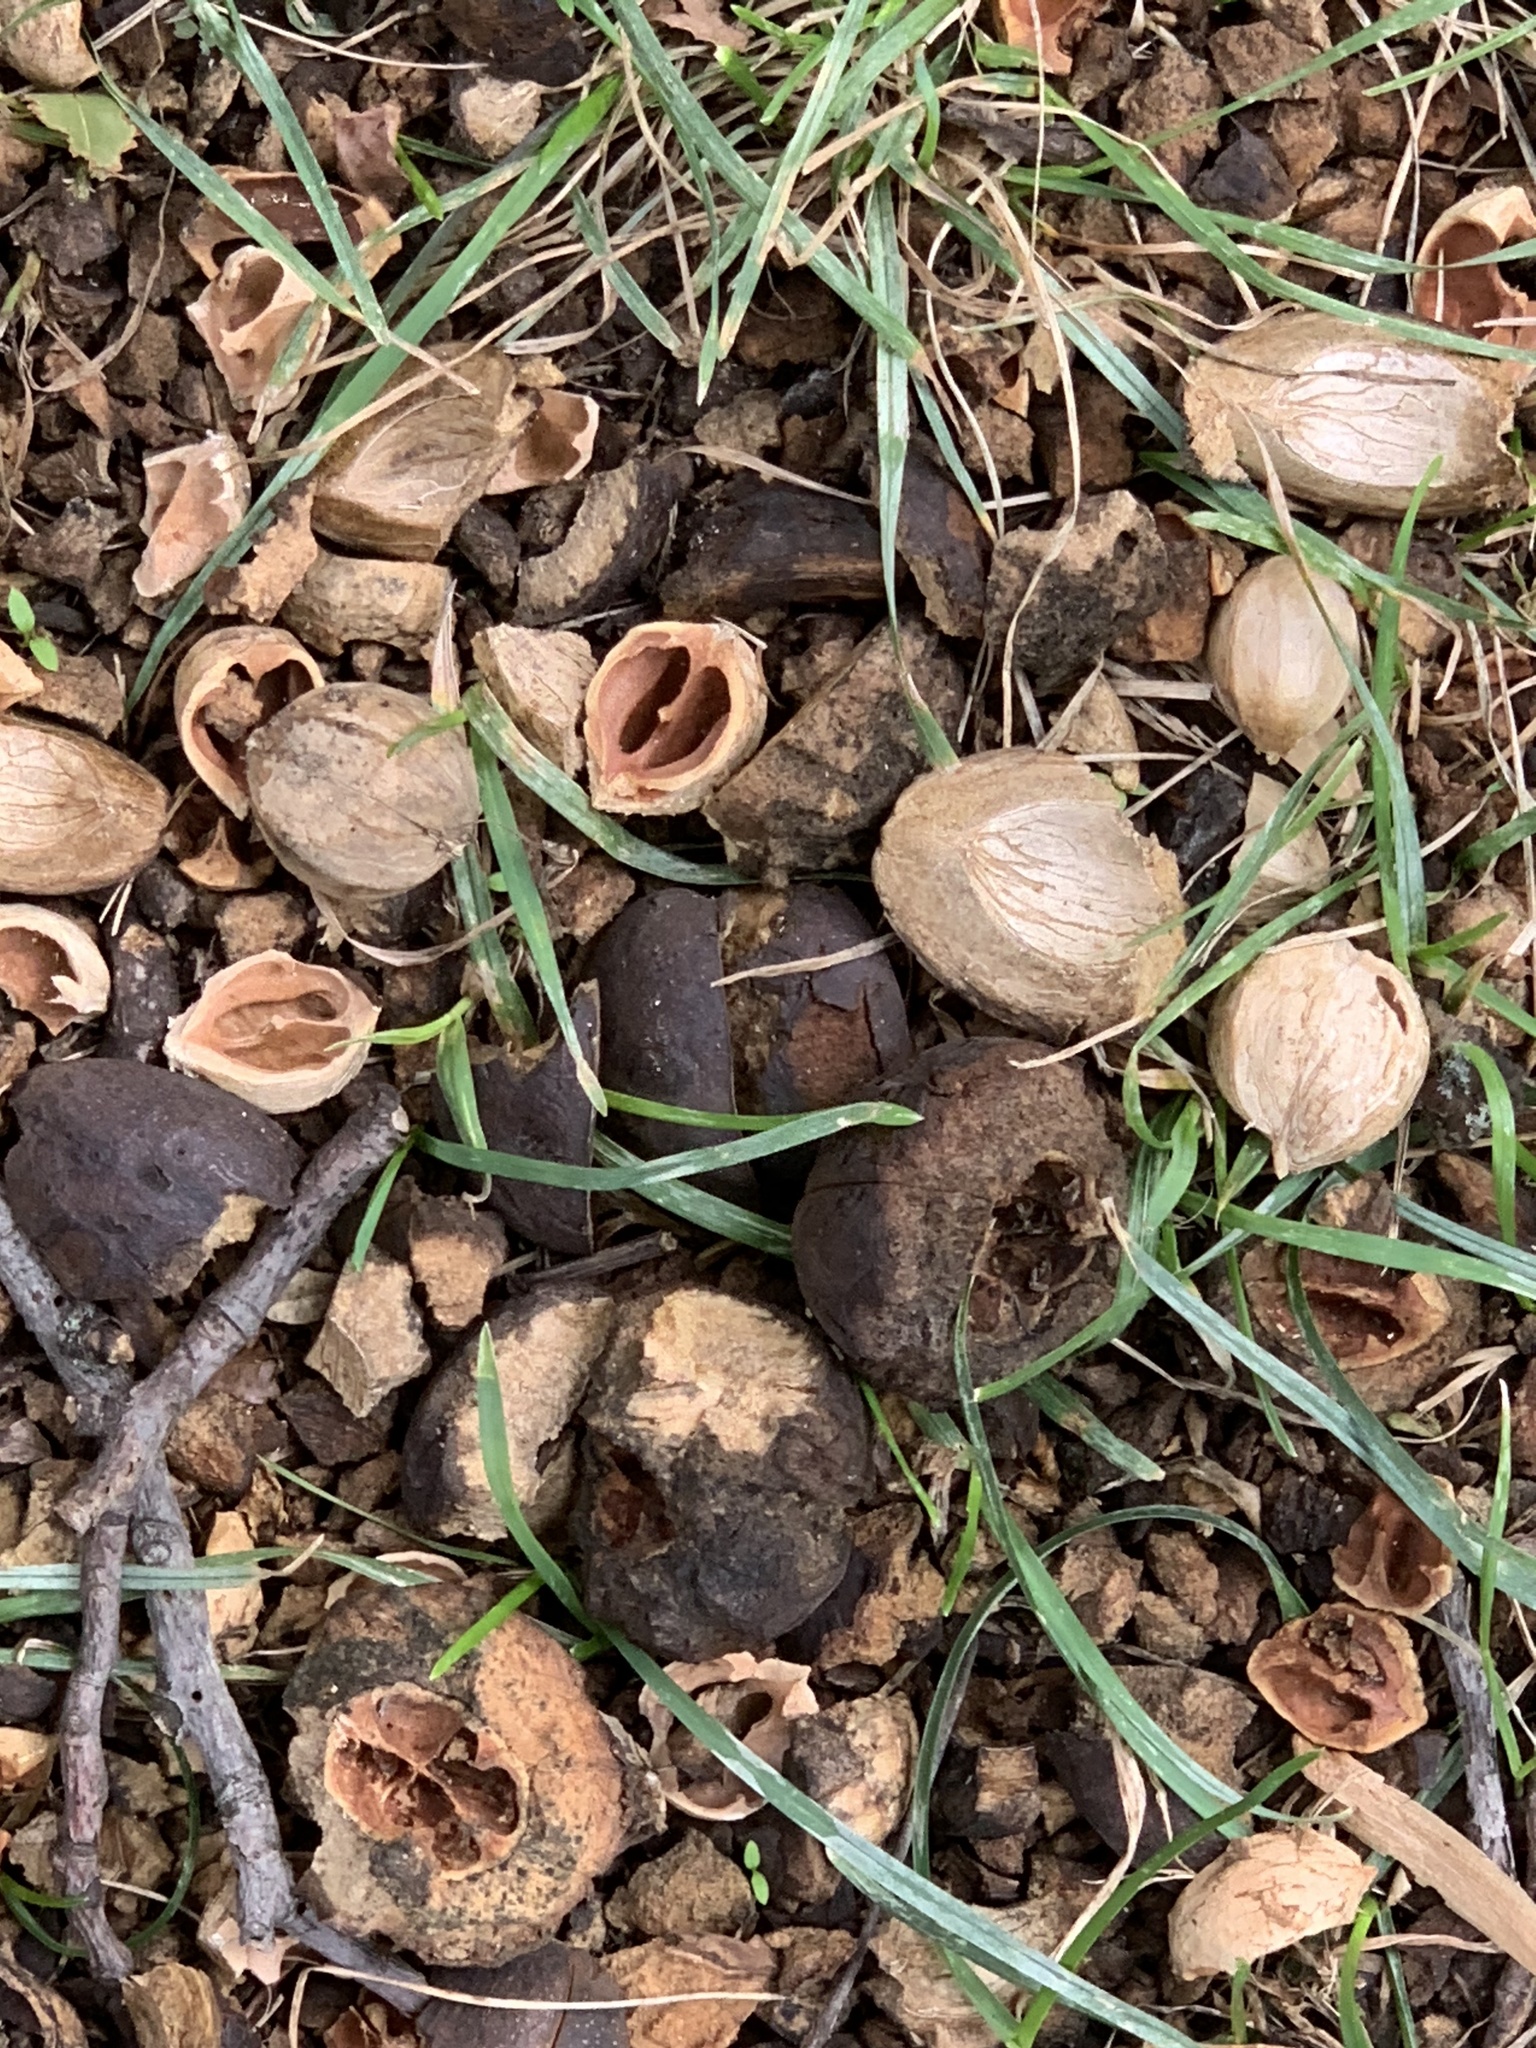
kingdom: Plantae
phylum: Tracheophyta
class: Magnoliopsida
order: Fagales
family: Juglandaceae
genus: Carya
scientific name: Carya ovata
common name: Shagbark hickory
